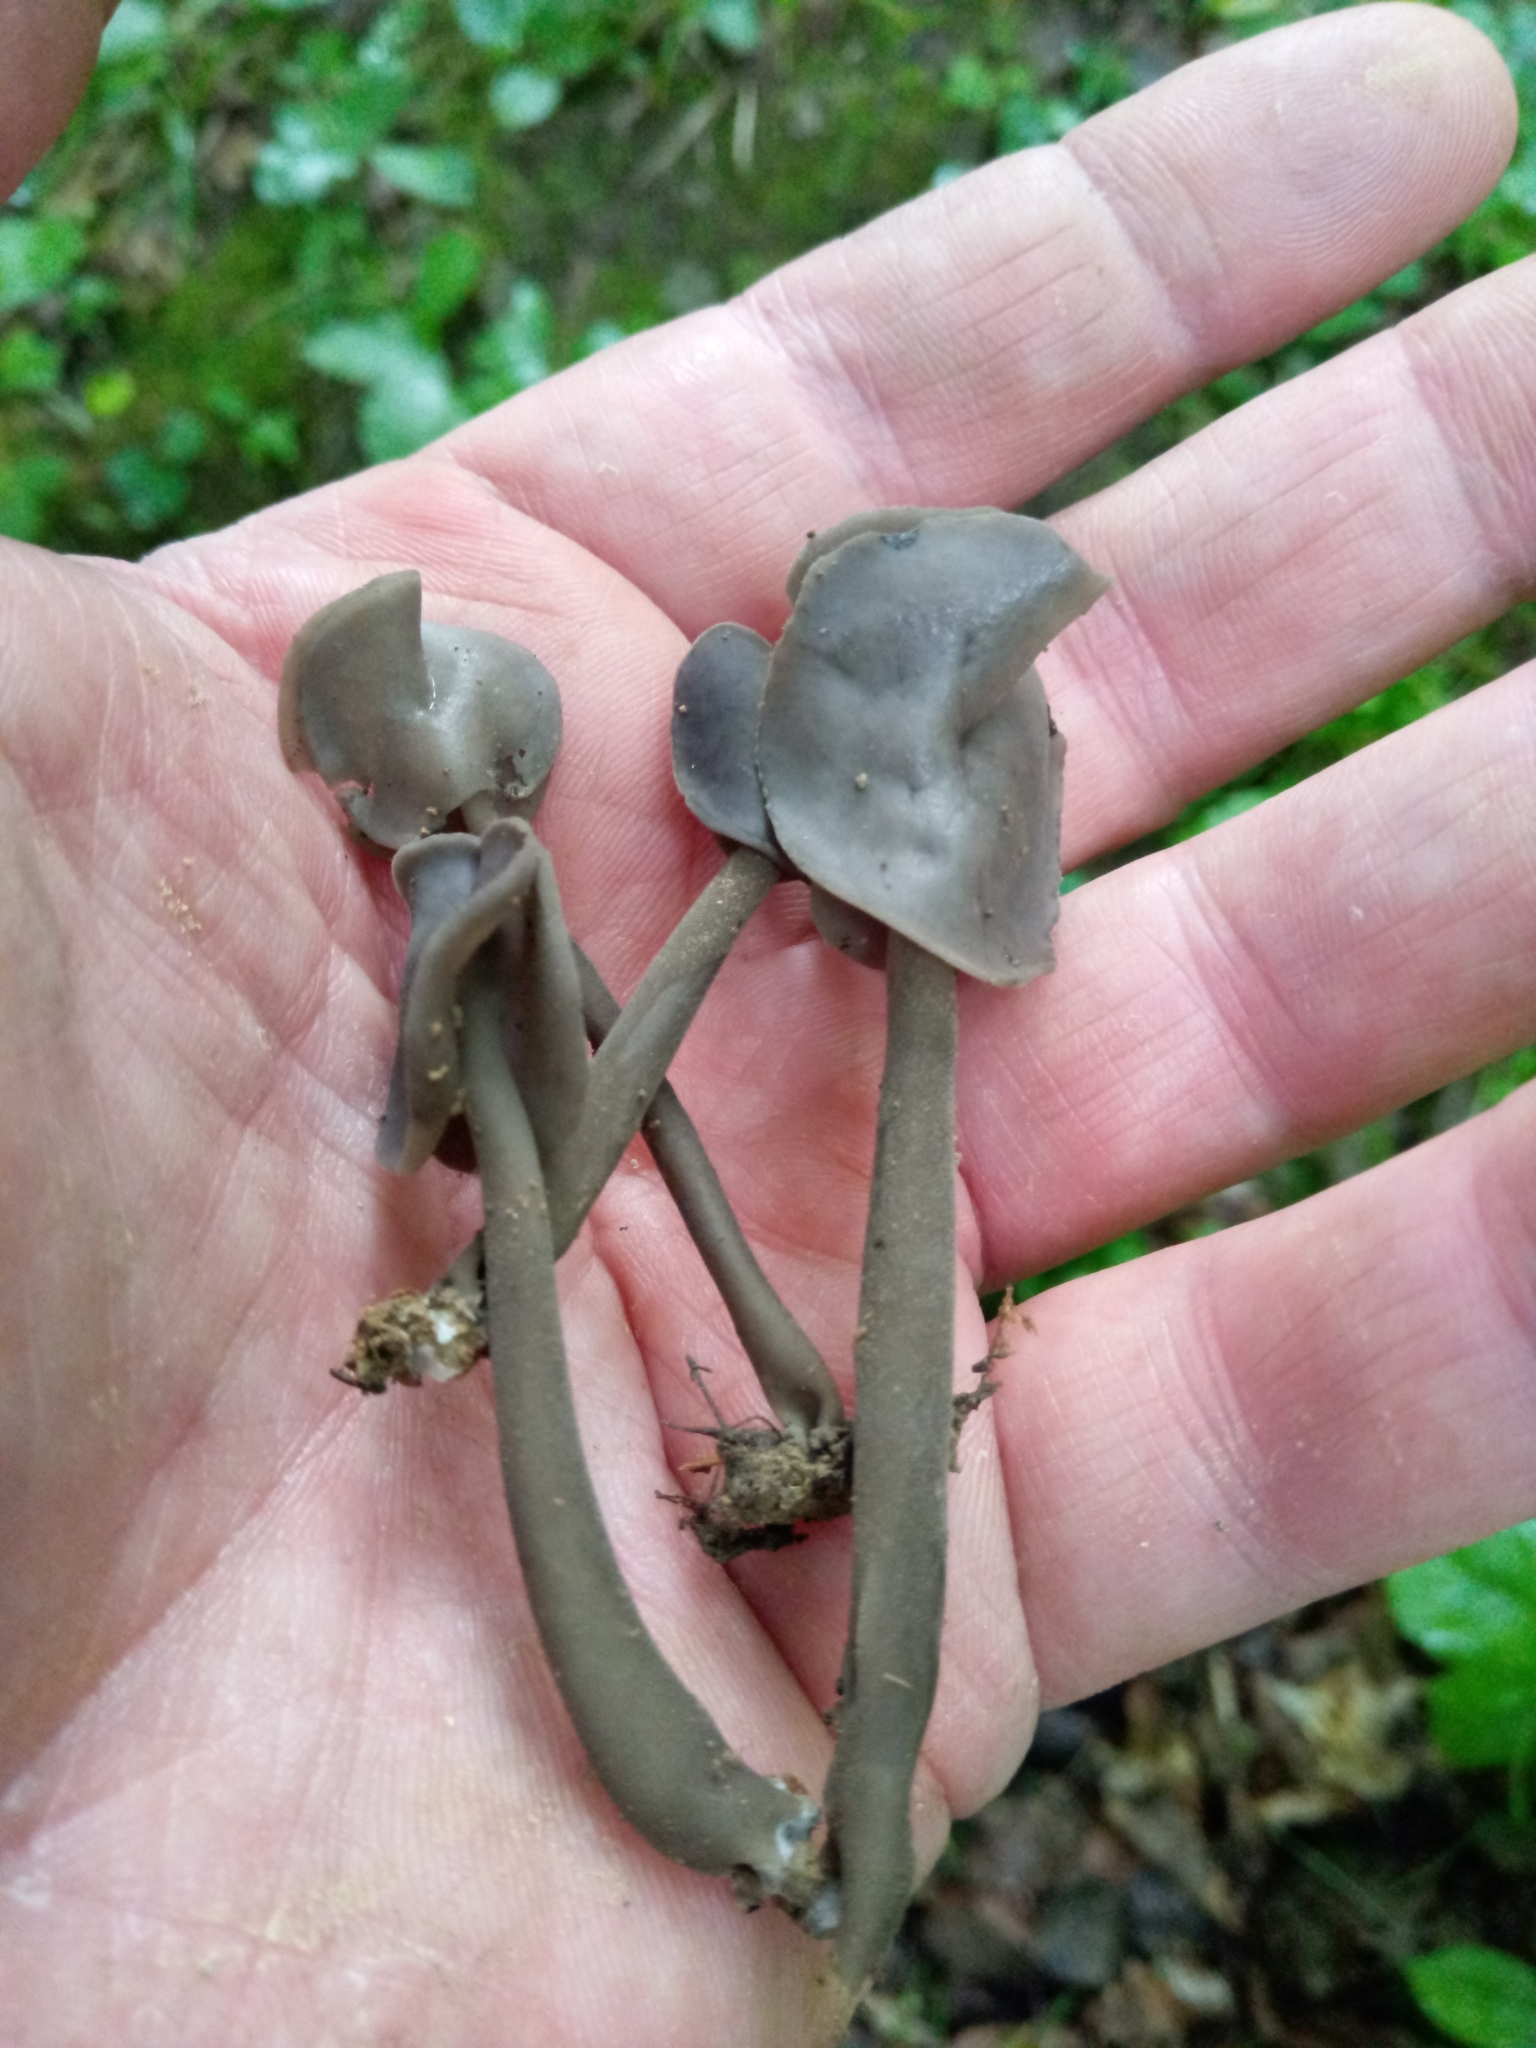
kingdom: Fungi
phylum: Ascomycota
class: Pezizomycetes
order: Pezizales
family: Helvellaceae
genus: Helvella
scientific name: Helvella atra
